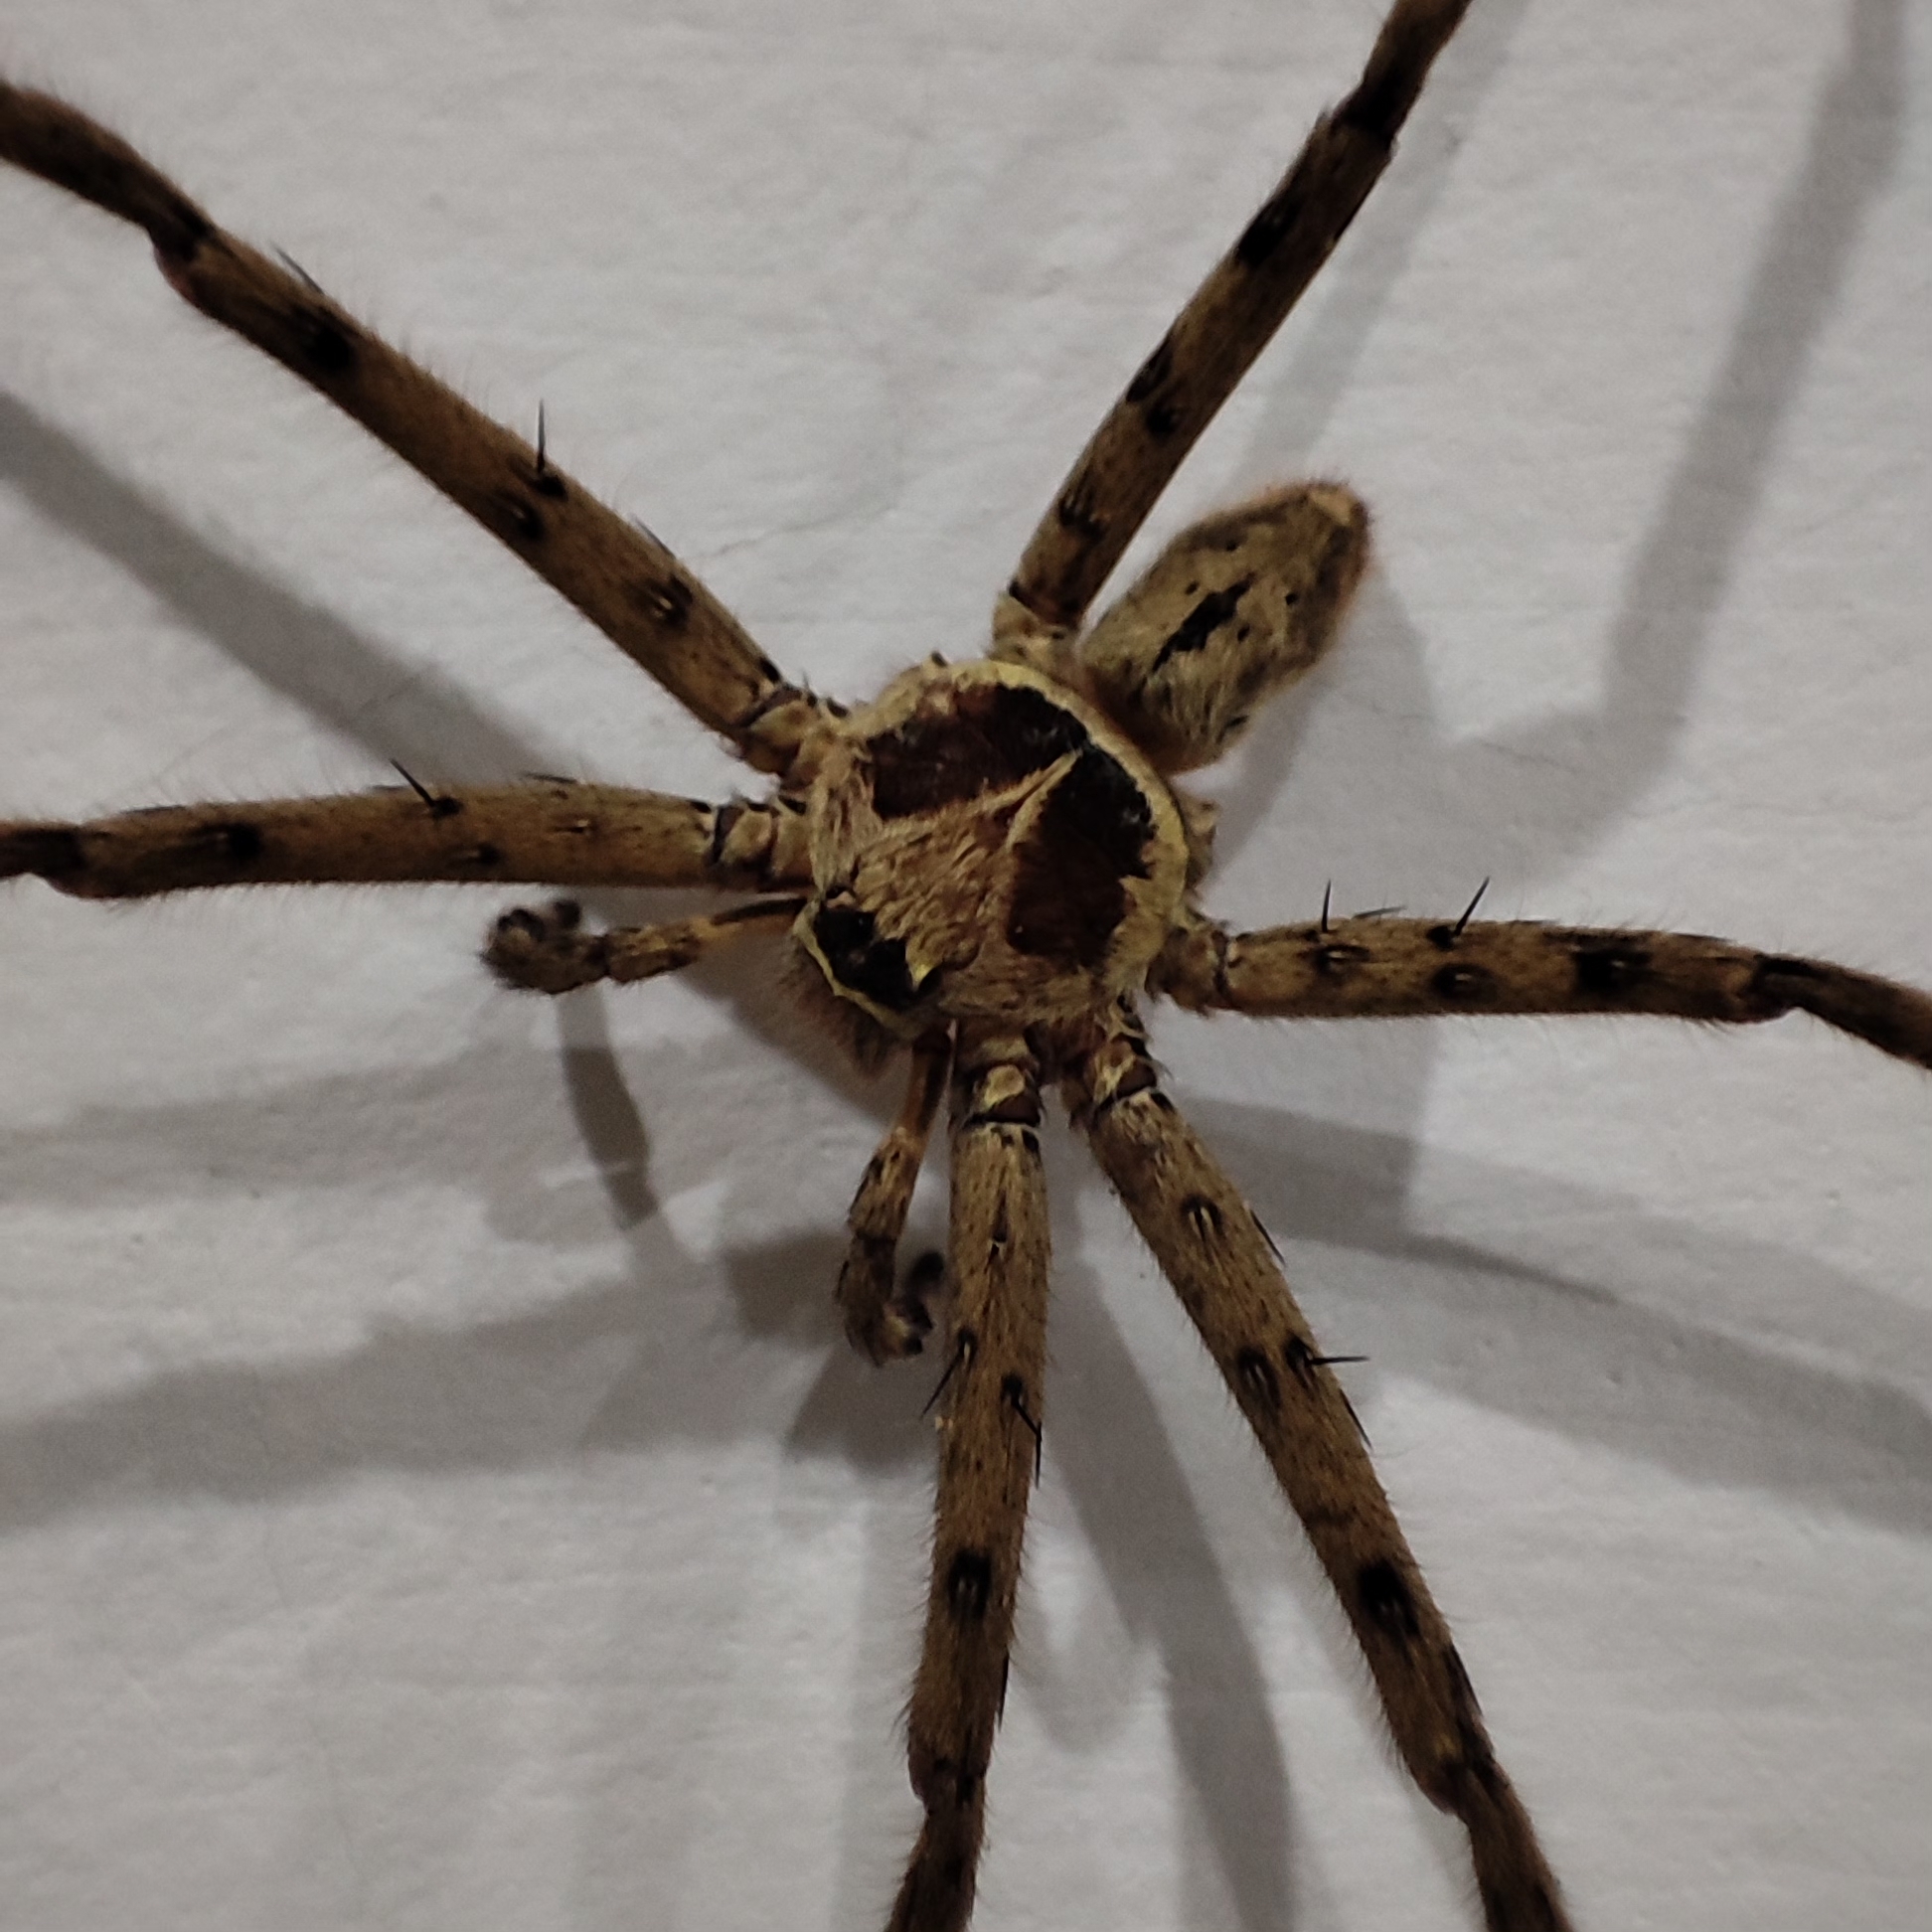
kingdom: Animalia
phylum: Arthropoda
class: Arachnida
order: Araneae
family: Sparassidae
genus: Heteropoda
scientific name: Heteropoda venatoria
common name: Huntsman spider
